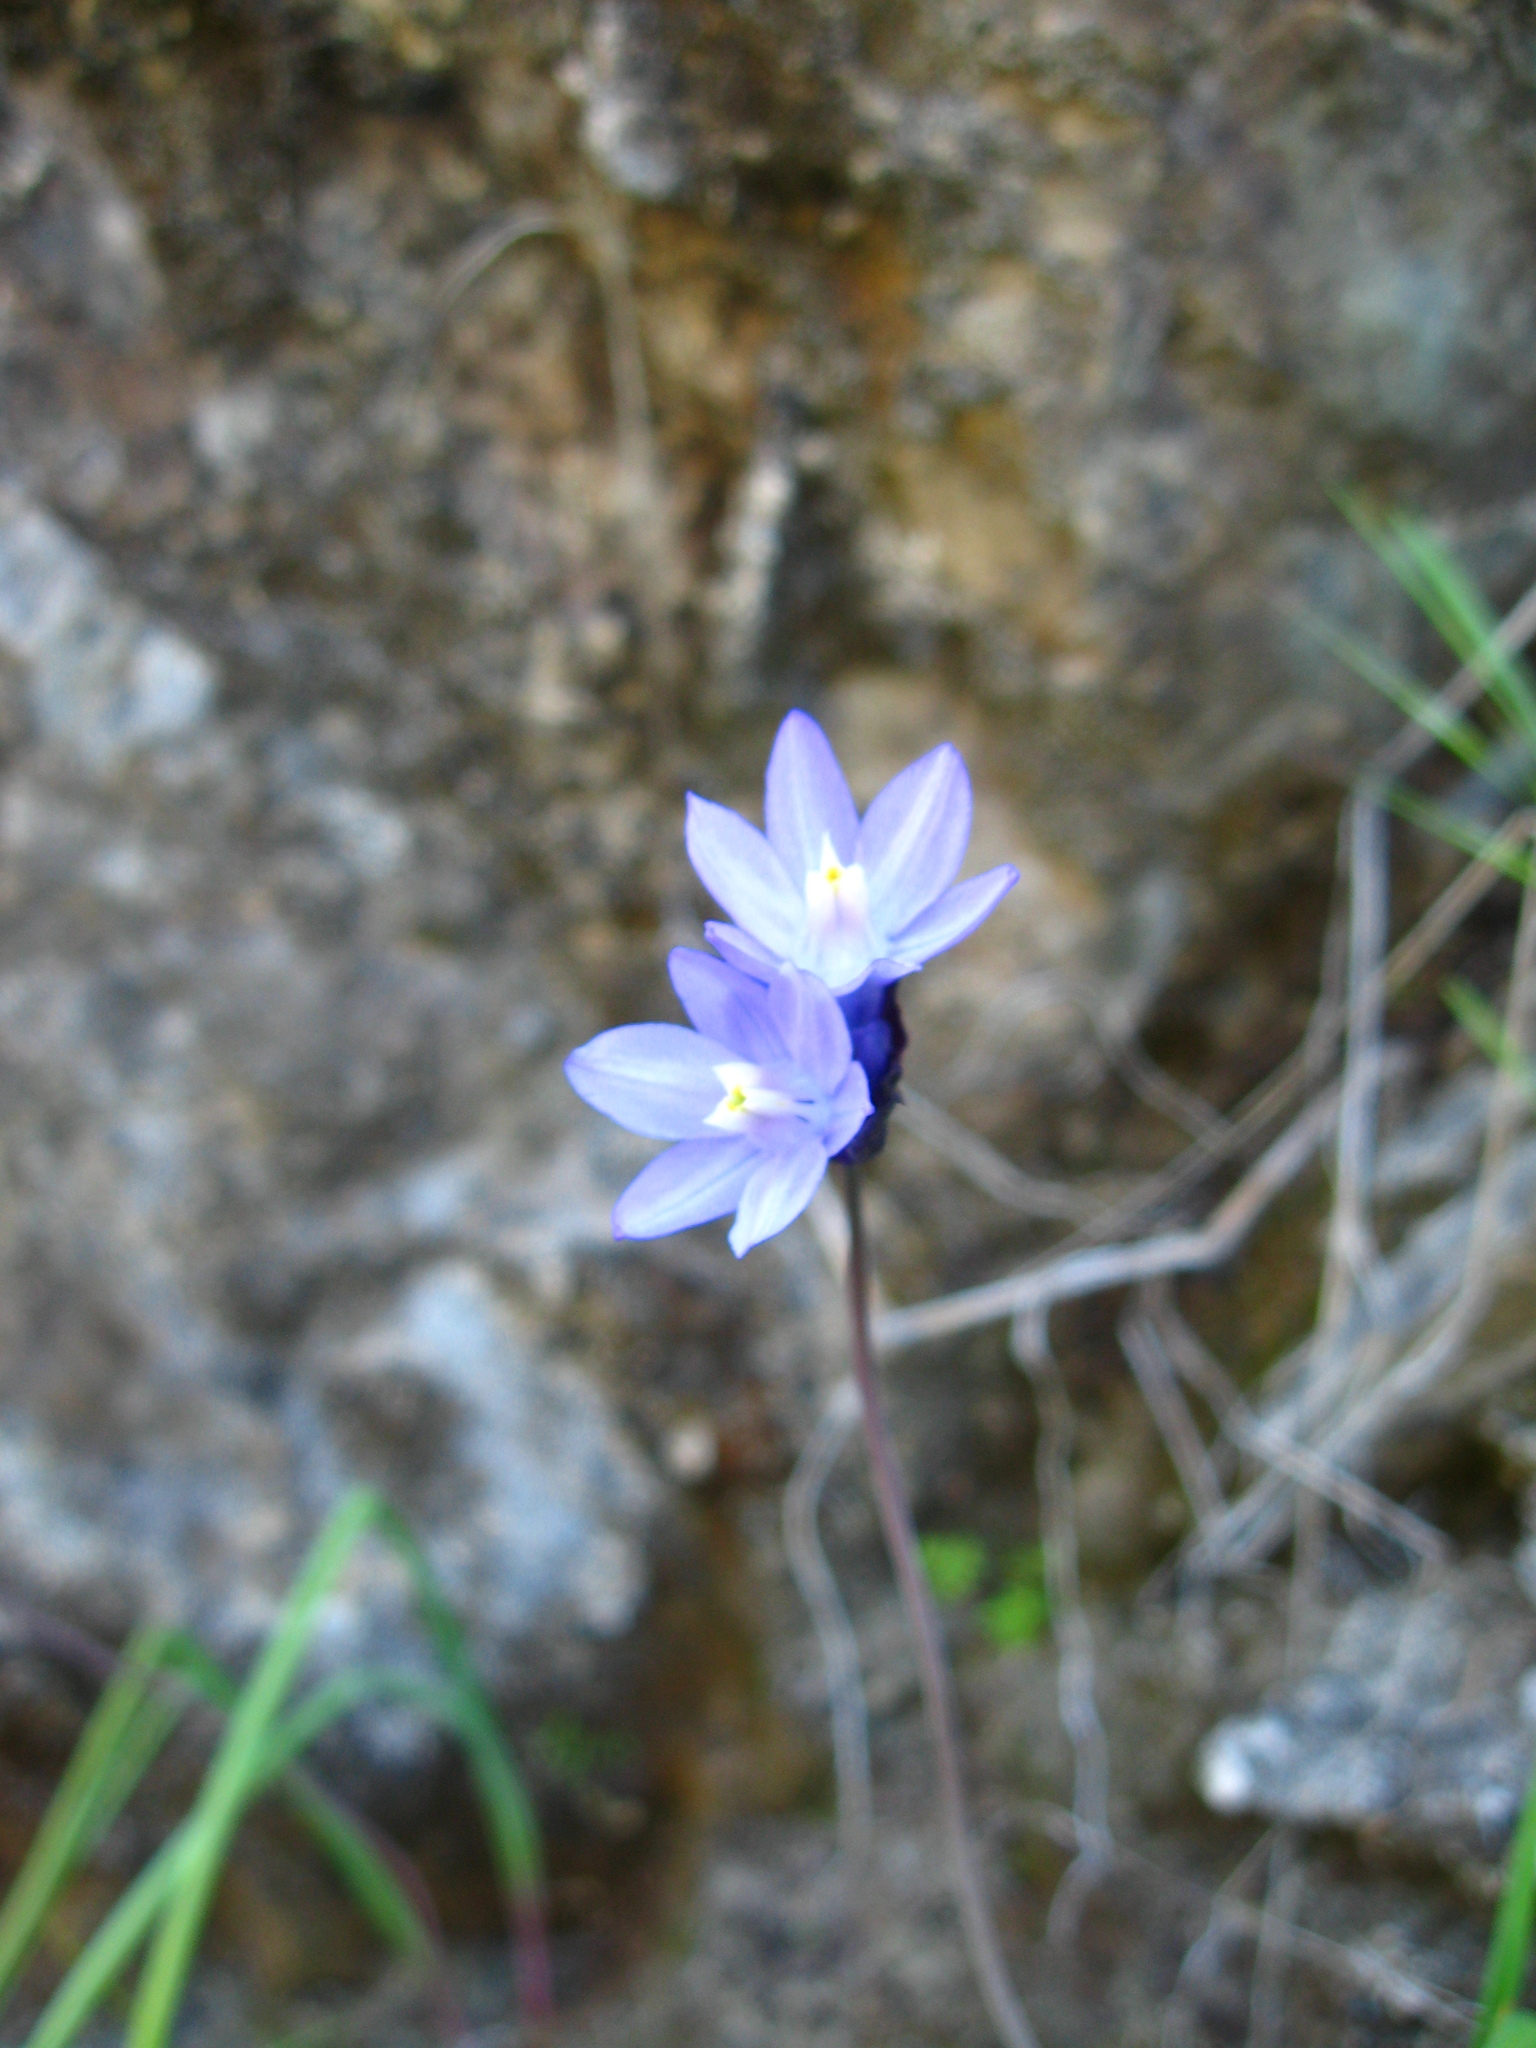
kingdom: Plantae
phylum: Tracheophyta
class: Liliopsida
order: Asparagales
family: Asparagaceae
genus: Dipterostemon
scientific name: Dipterostemon capitatus
